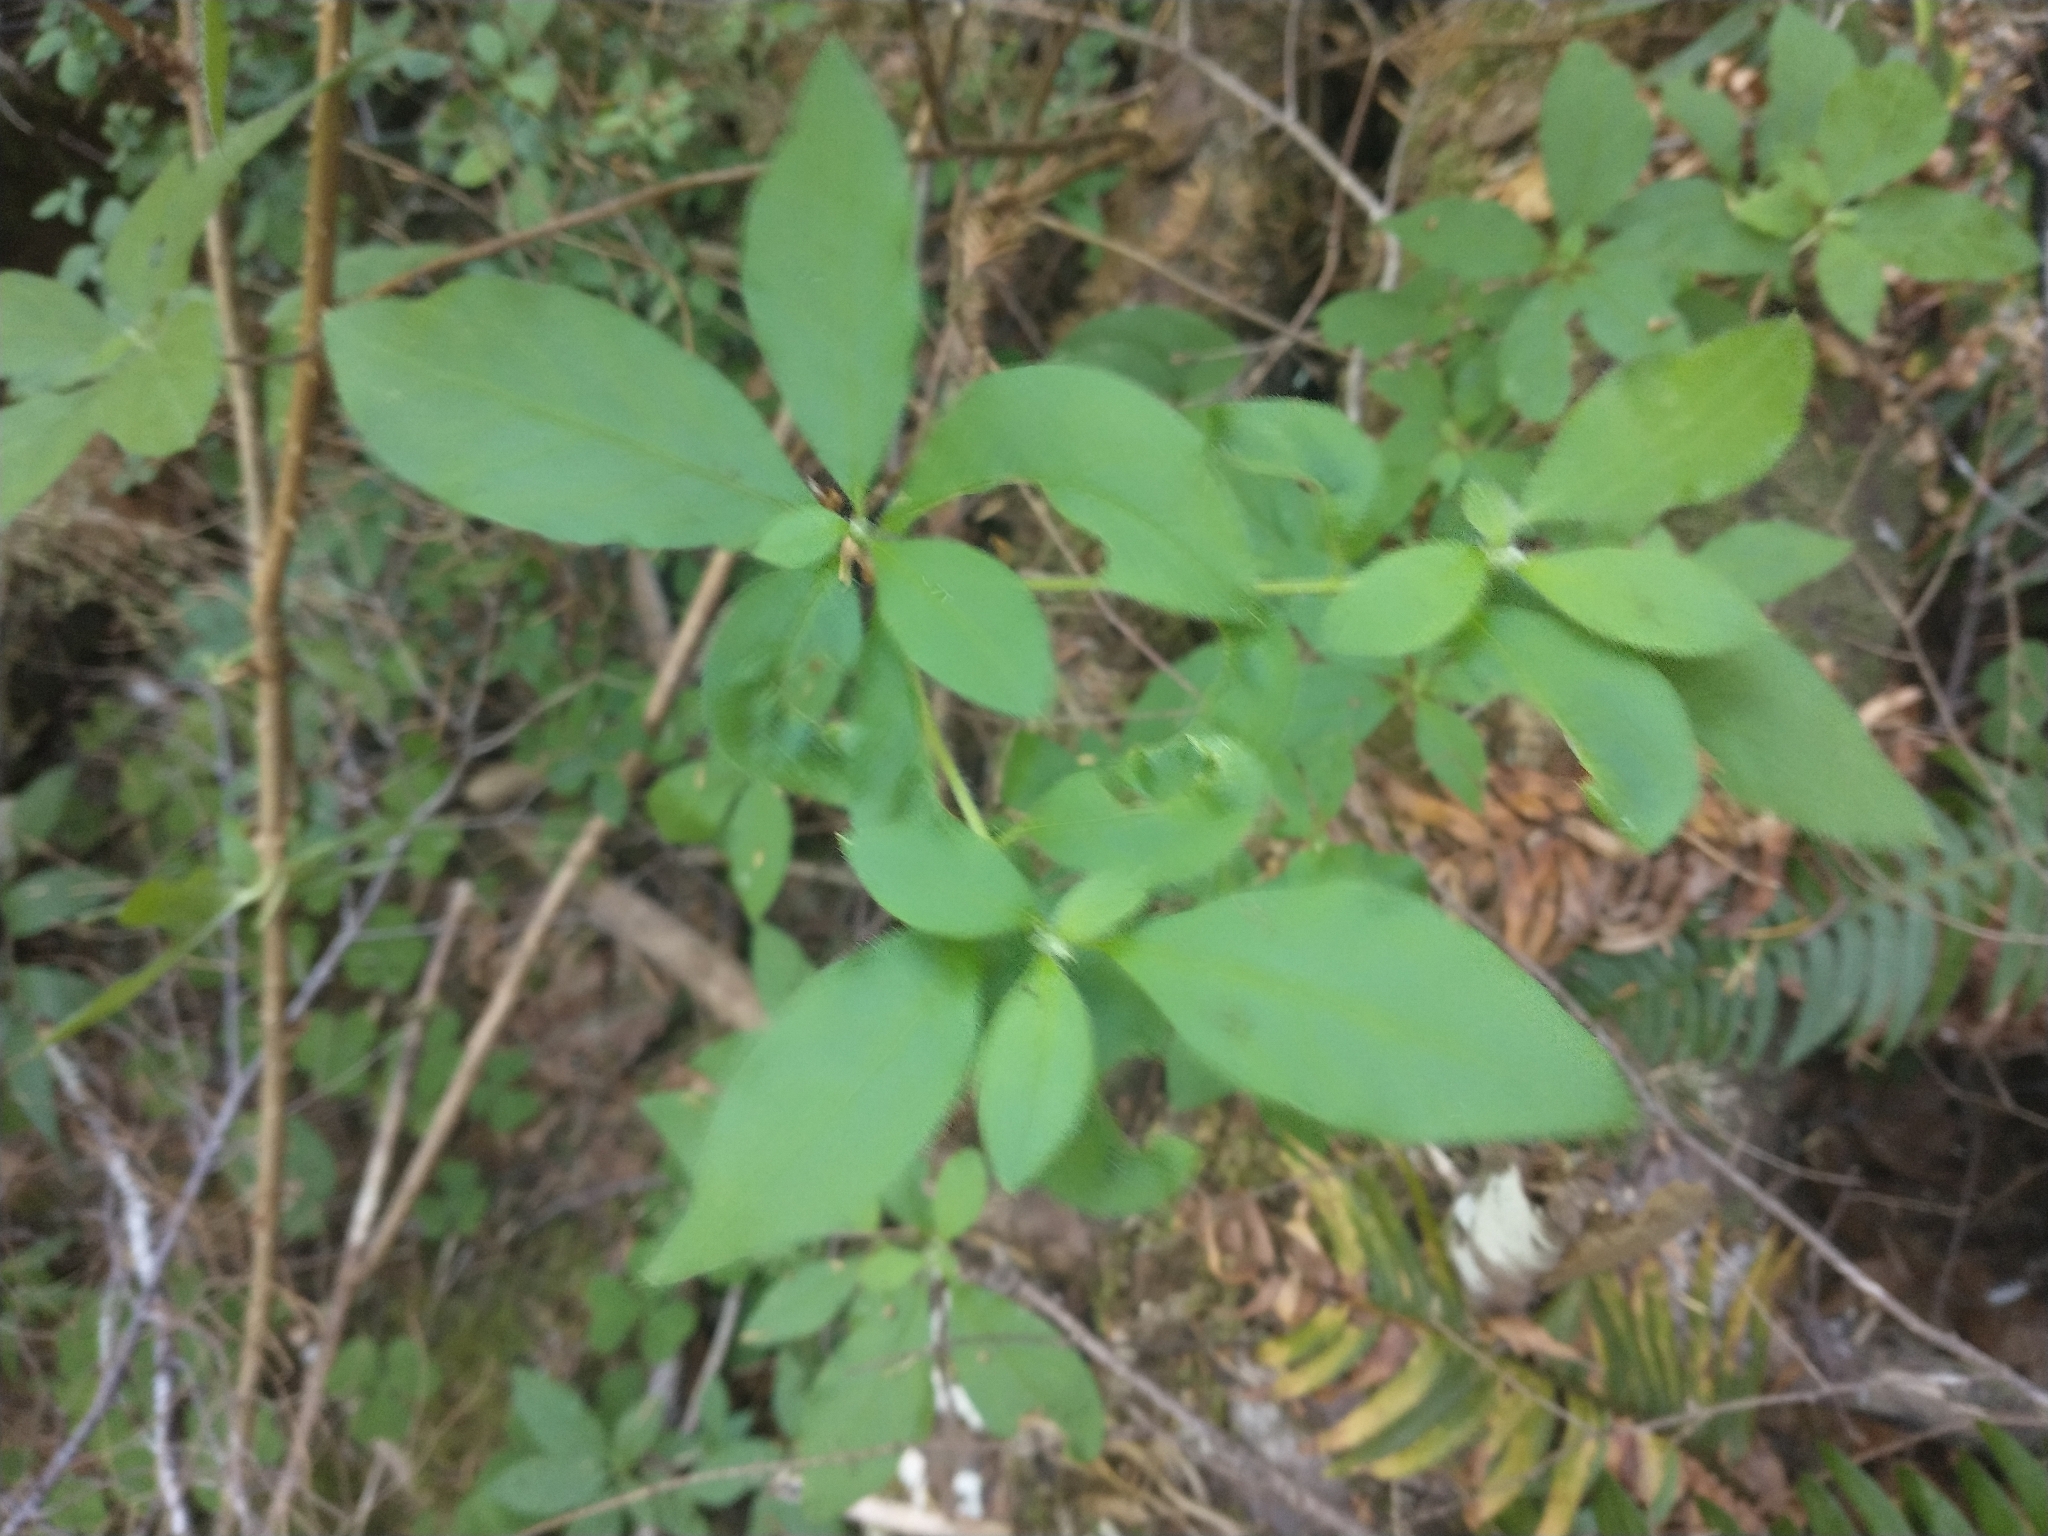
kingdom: Plantae
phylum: Tracheophyta
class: Magnoliopsida
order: Ericales
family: Ericaceae
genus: Rhododendron
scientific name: Rhododendron menziesii
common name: Pacific menziesia
